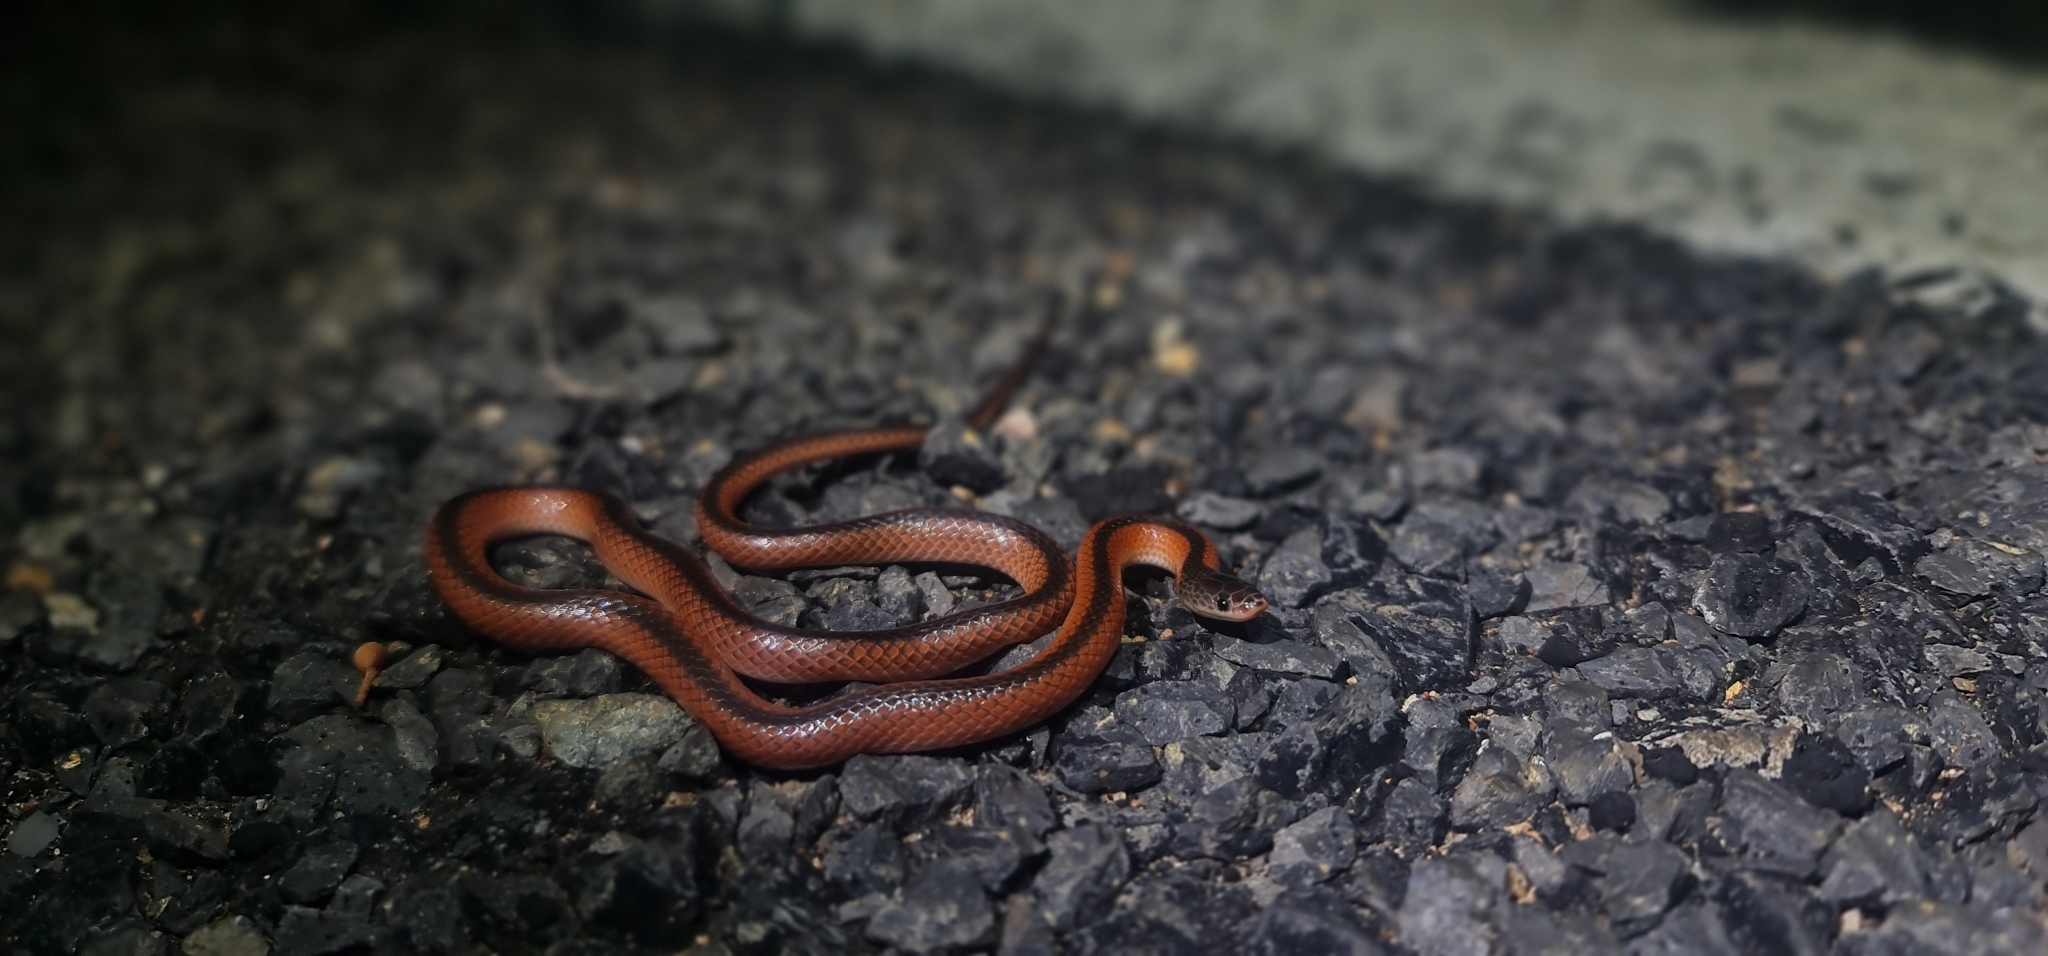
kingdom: Animalia
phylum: Chordata
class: Squamata
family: Elapidae
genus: Cryptophis
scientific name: Cryptophis nigrostriatus
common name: Black-striped snake
